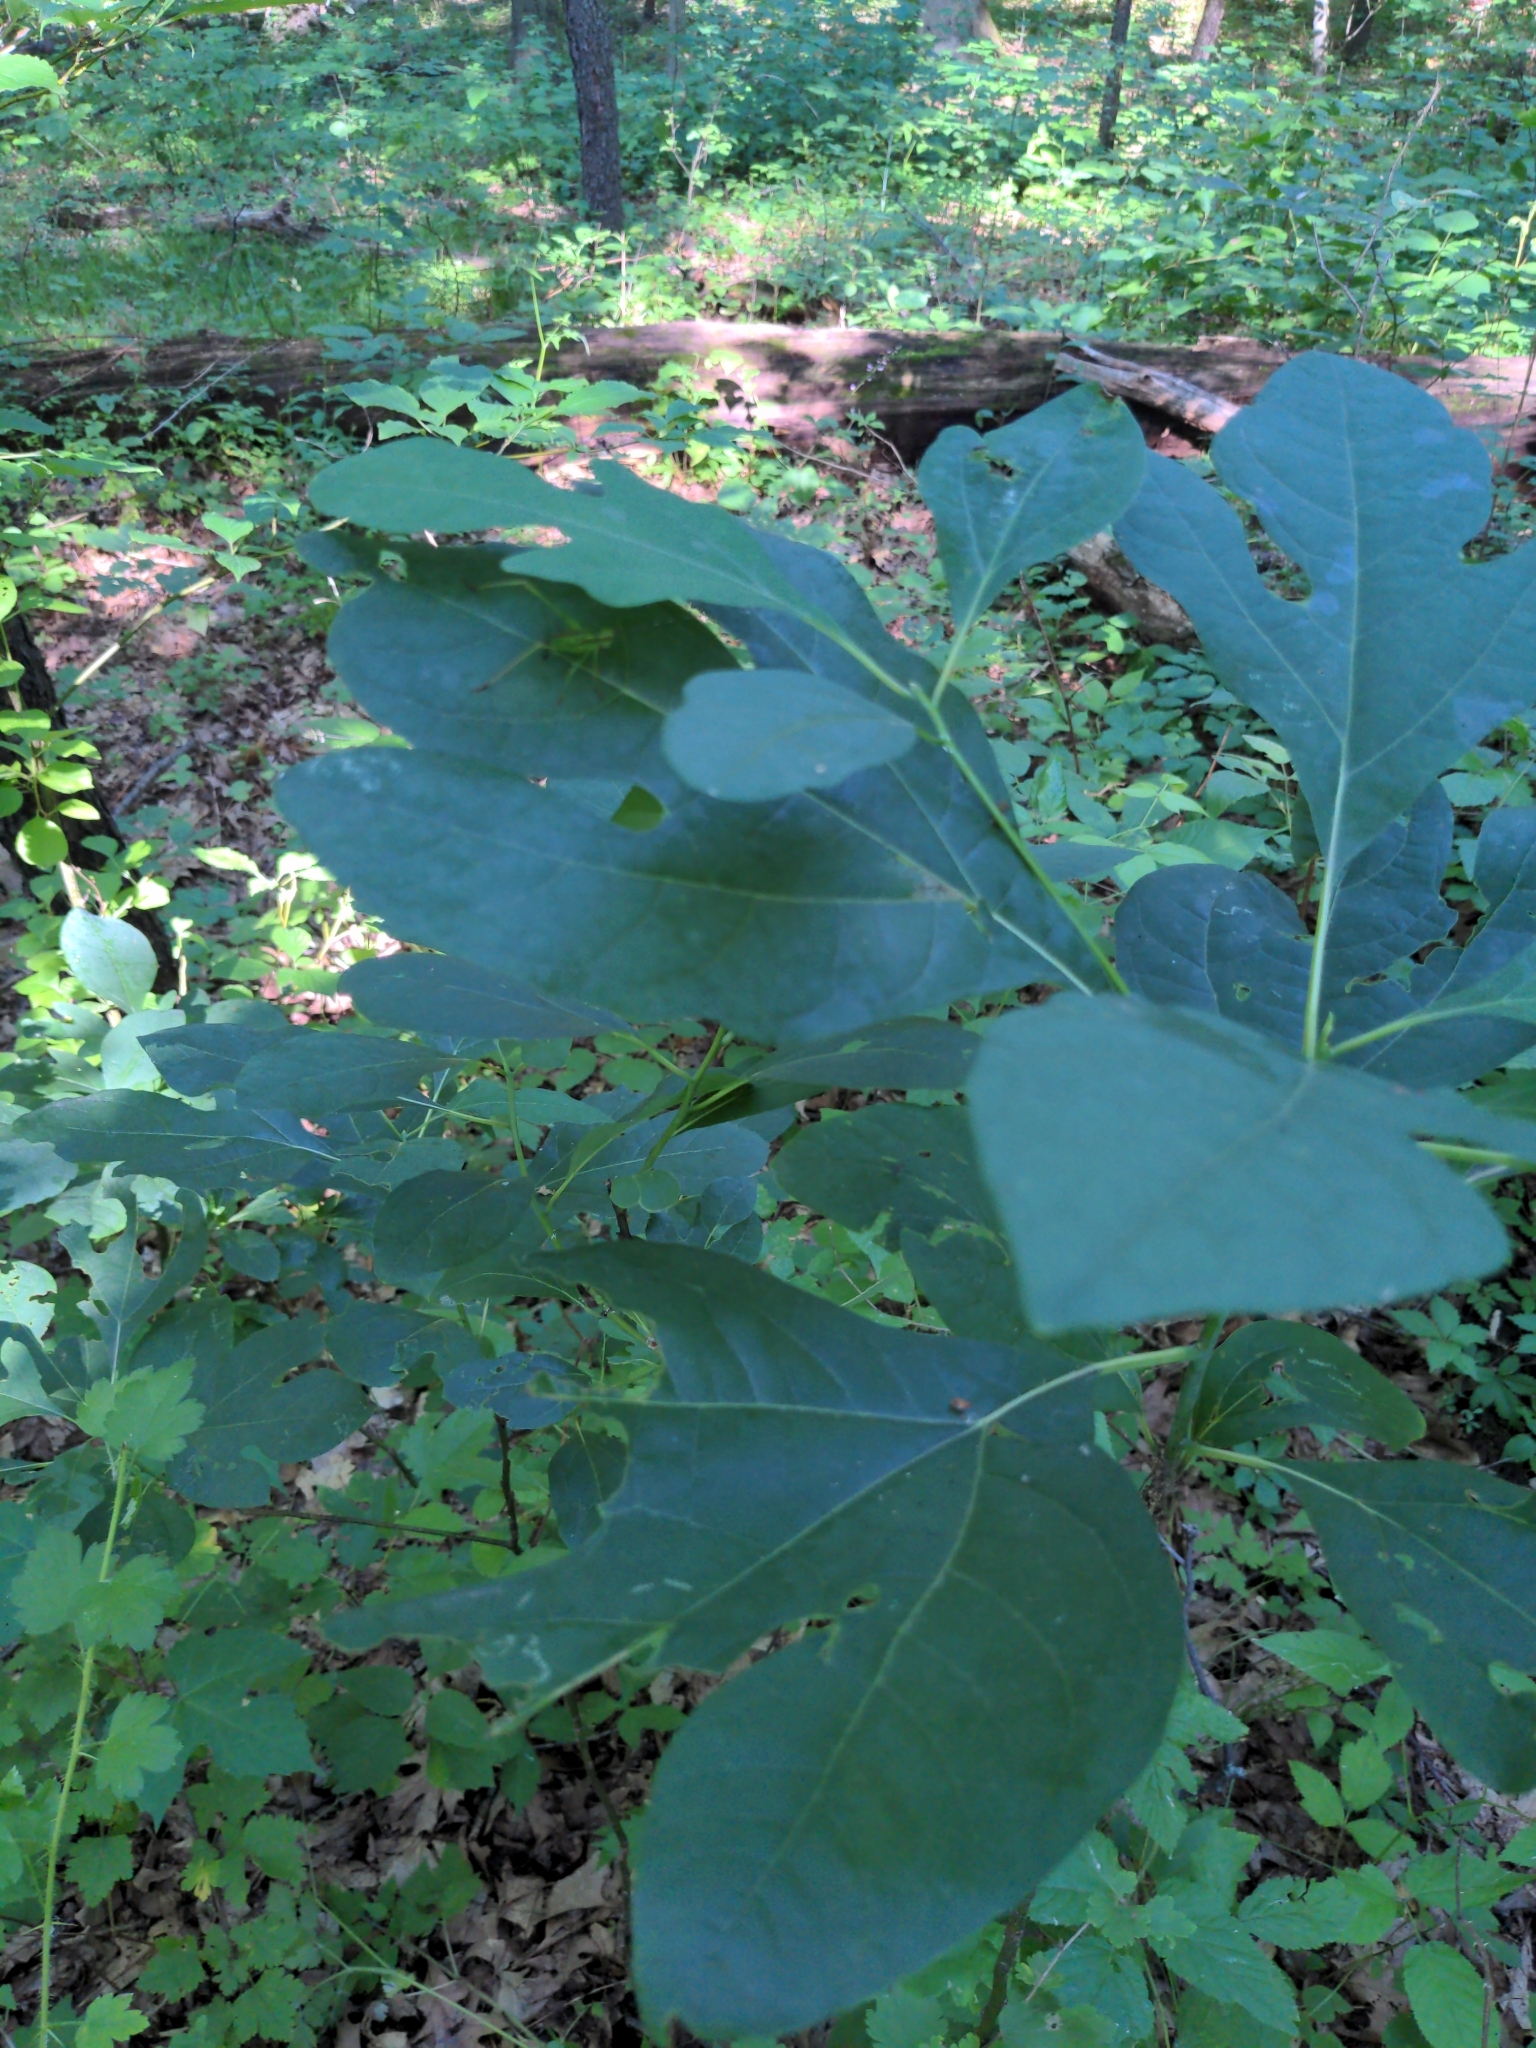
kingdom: Plantae
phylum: Tracheophyta
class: Magnoliopsida
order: Laurales
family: Lauraceae
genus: Sassafras
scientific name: Sassafras albidum
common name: Sassafras
